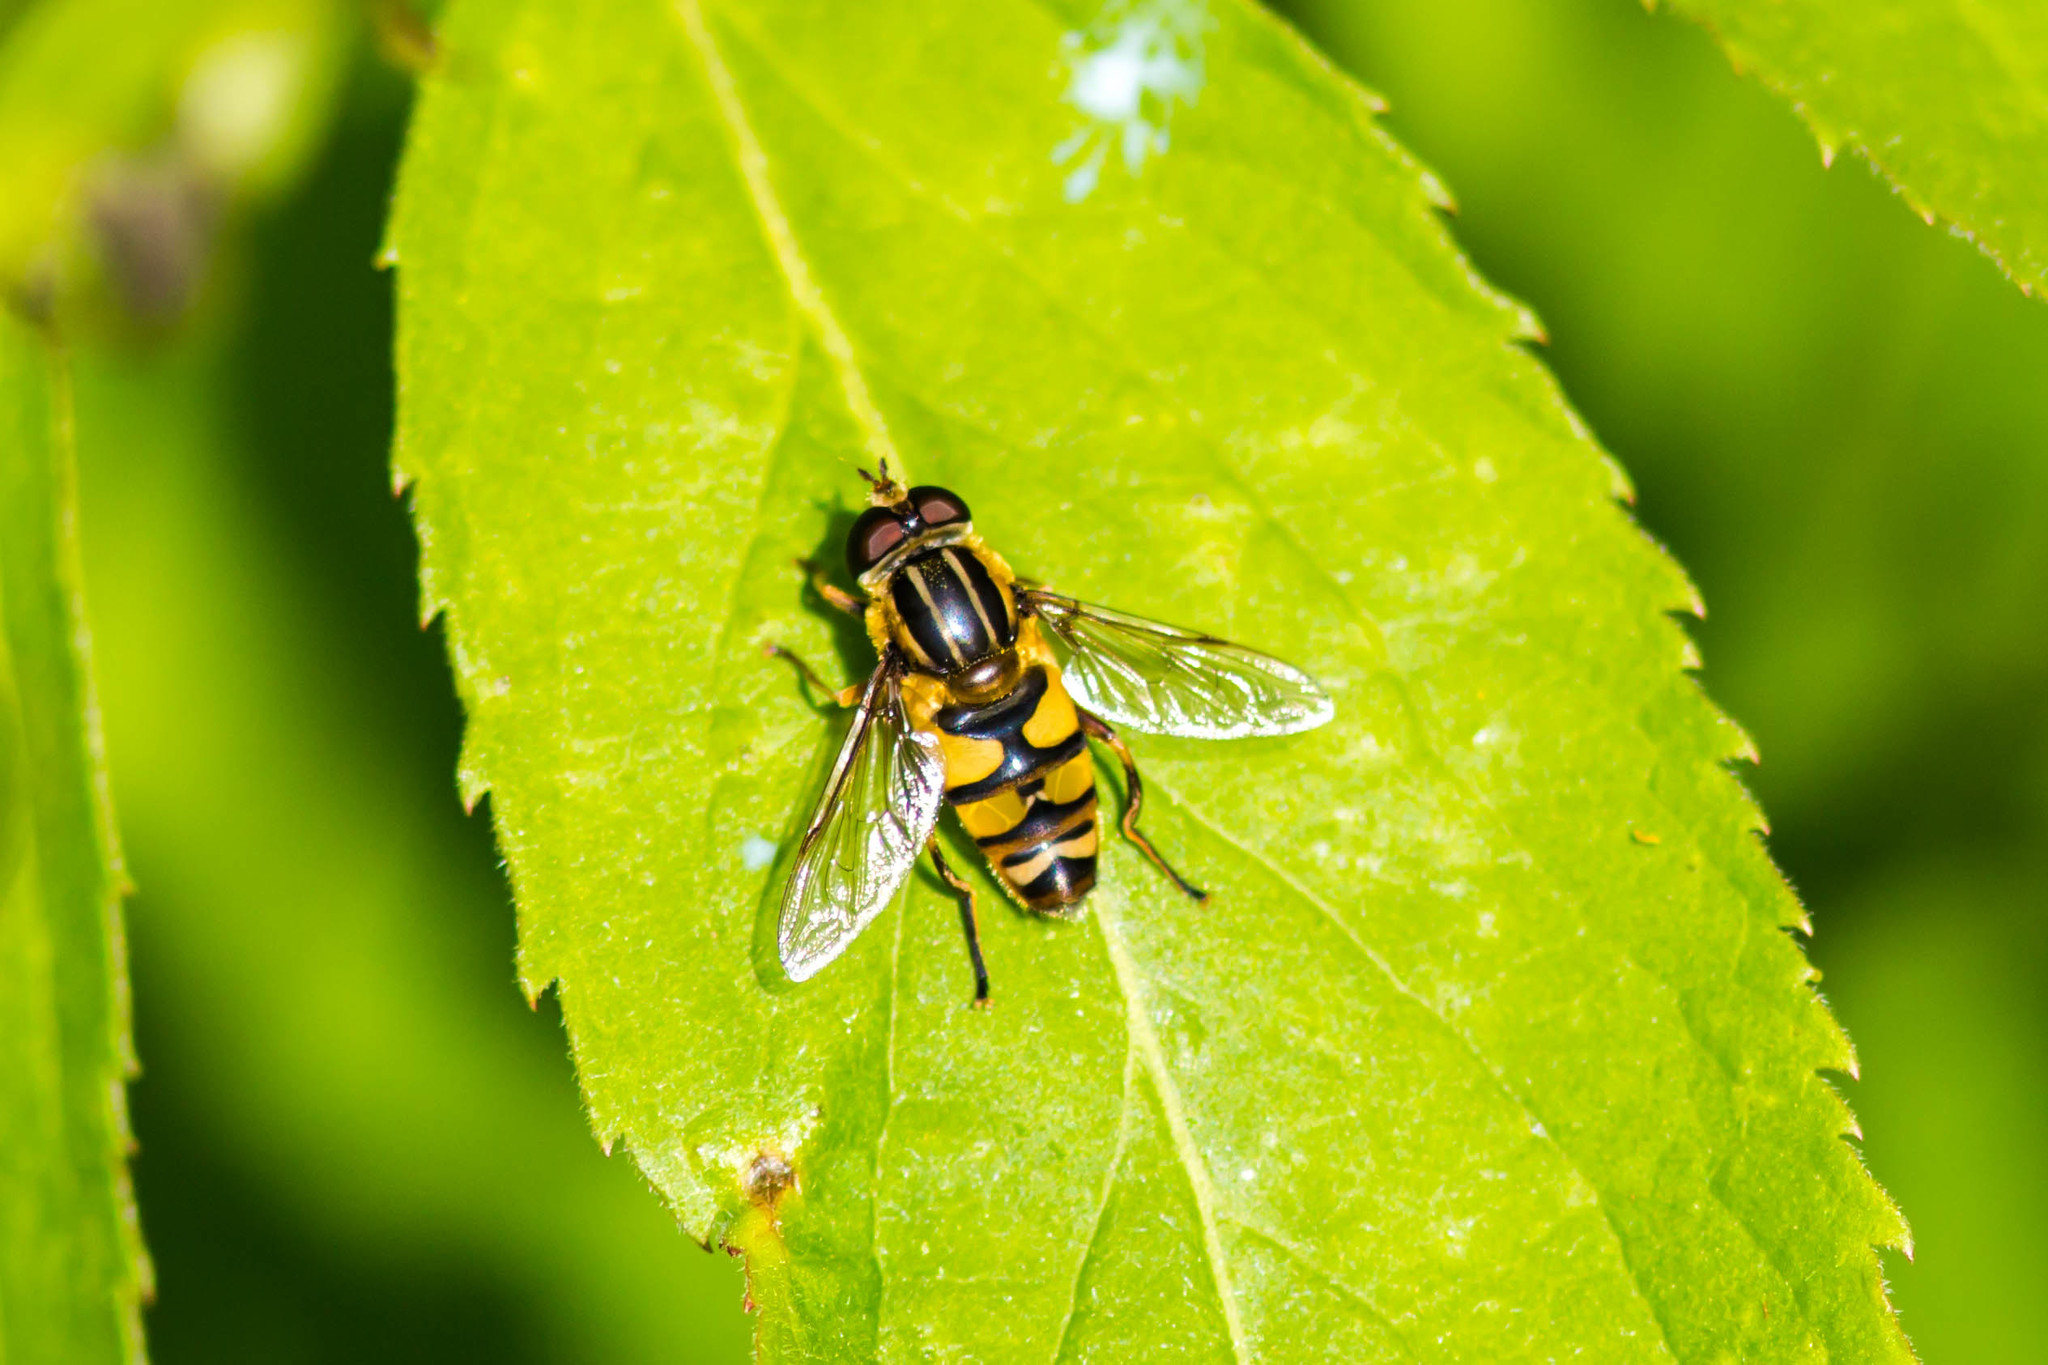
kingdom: Animalia
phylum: Arthropoda
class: Insecta
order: Diptera
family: Syrphidae
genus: Helophilus
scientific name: Helophilus fasciatus
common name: Narrow-headed marsh fly
